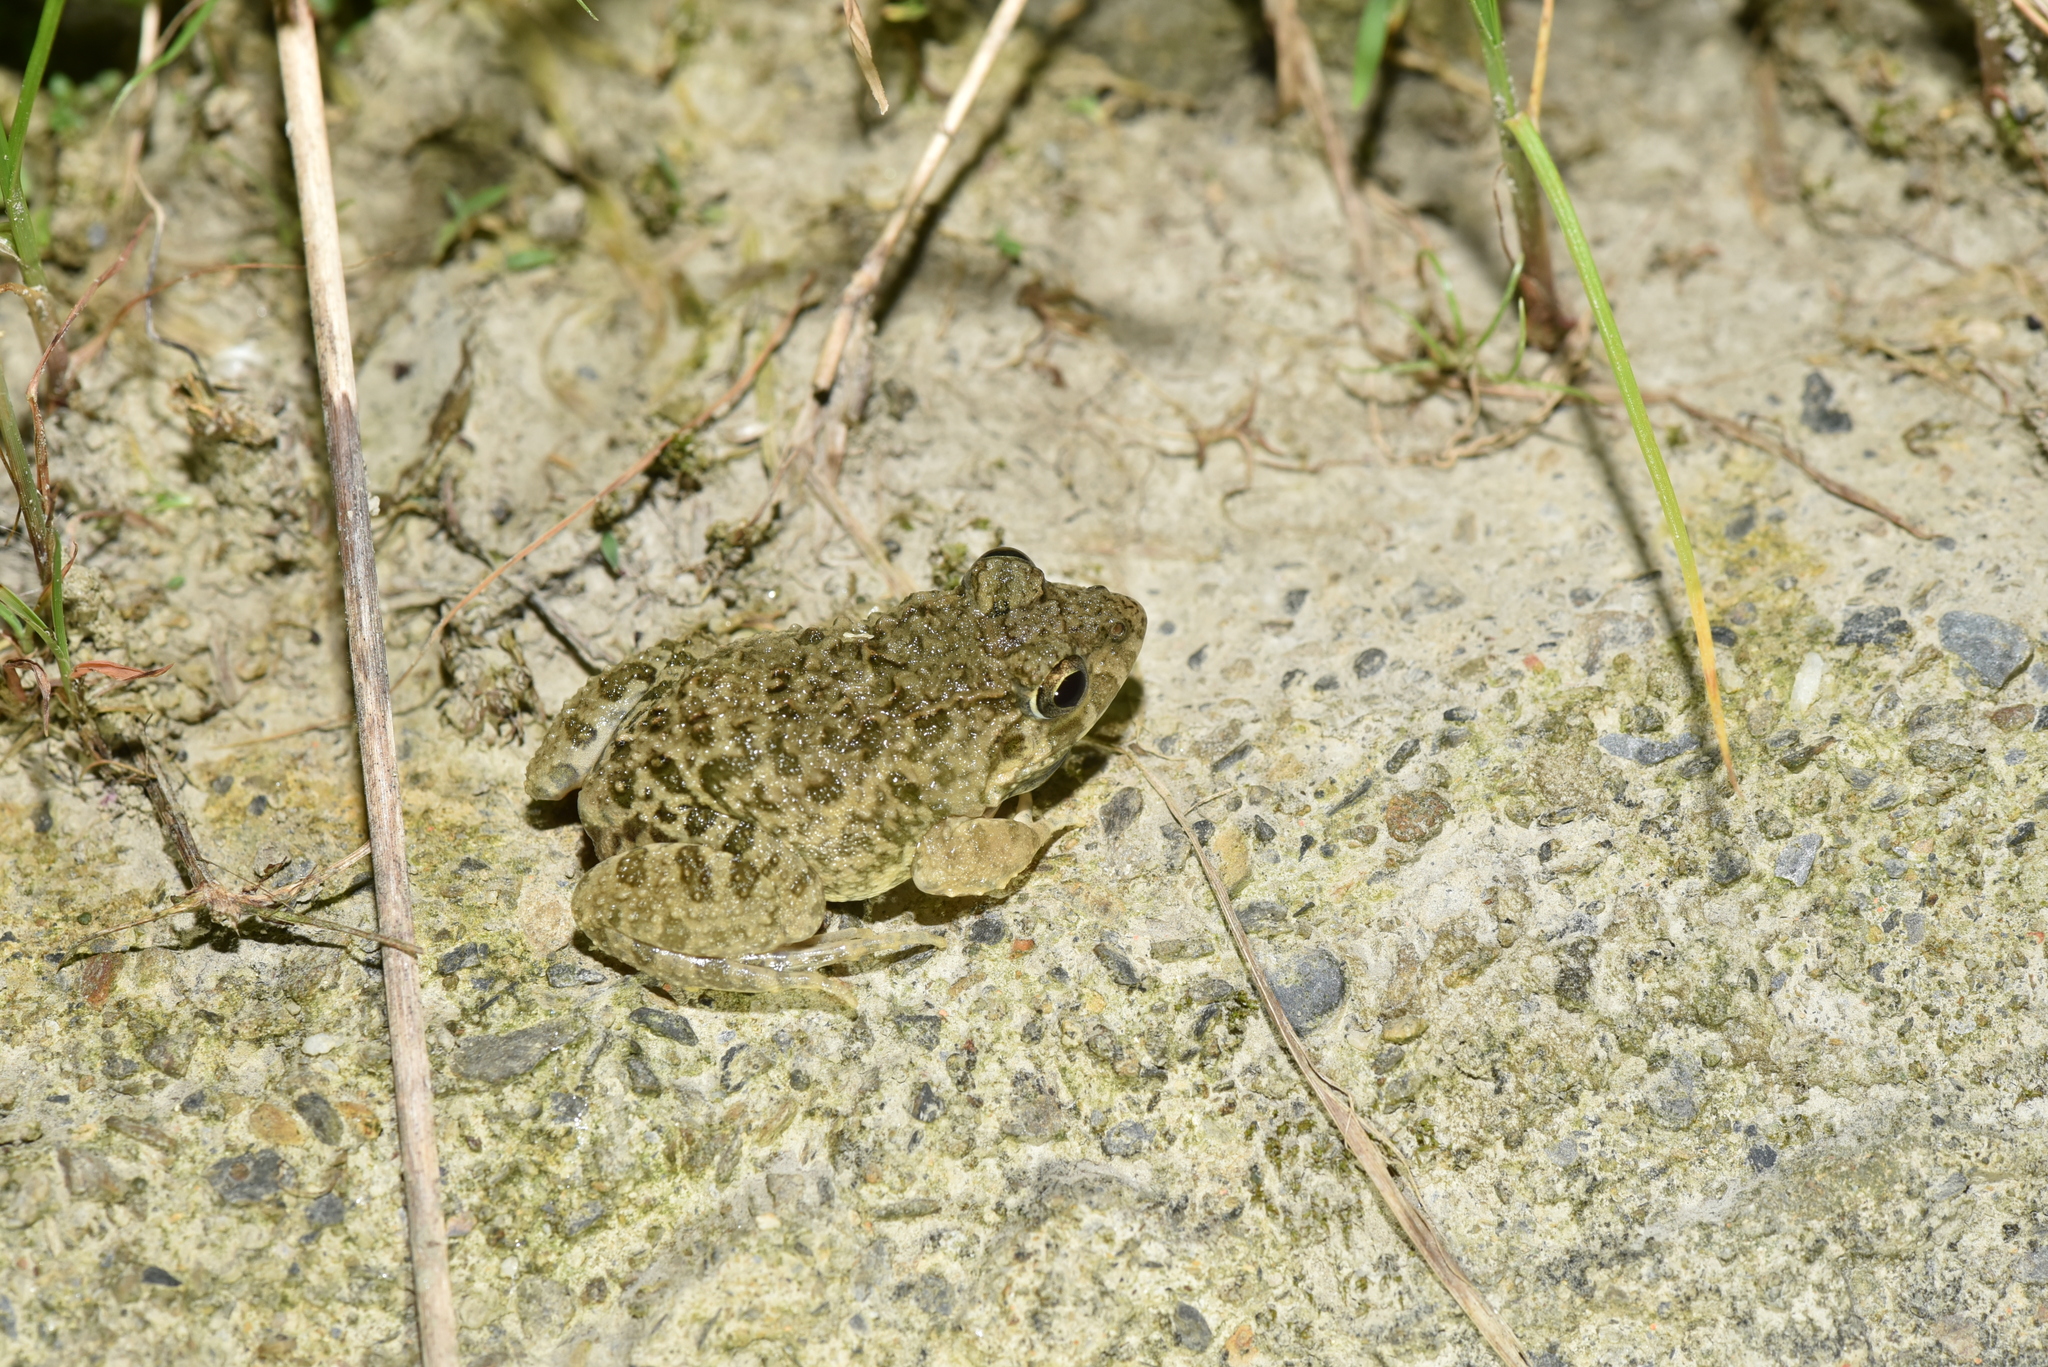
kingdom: Animalia
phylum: Chordata
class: Amphibia
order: Anura
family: Dicroglossidae
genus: Fejervarya
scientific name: Fejervarya limnocharis
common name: Asian grass frog/common pond frog/field frog/grass frog/indian rice frog
